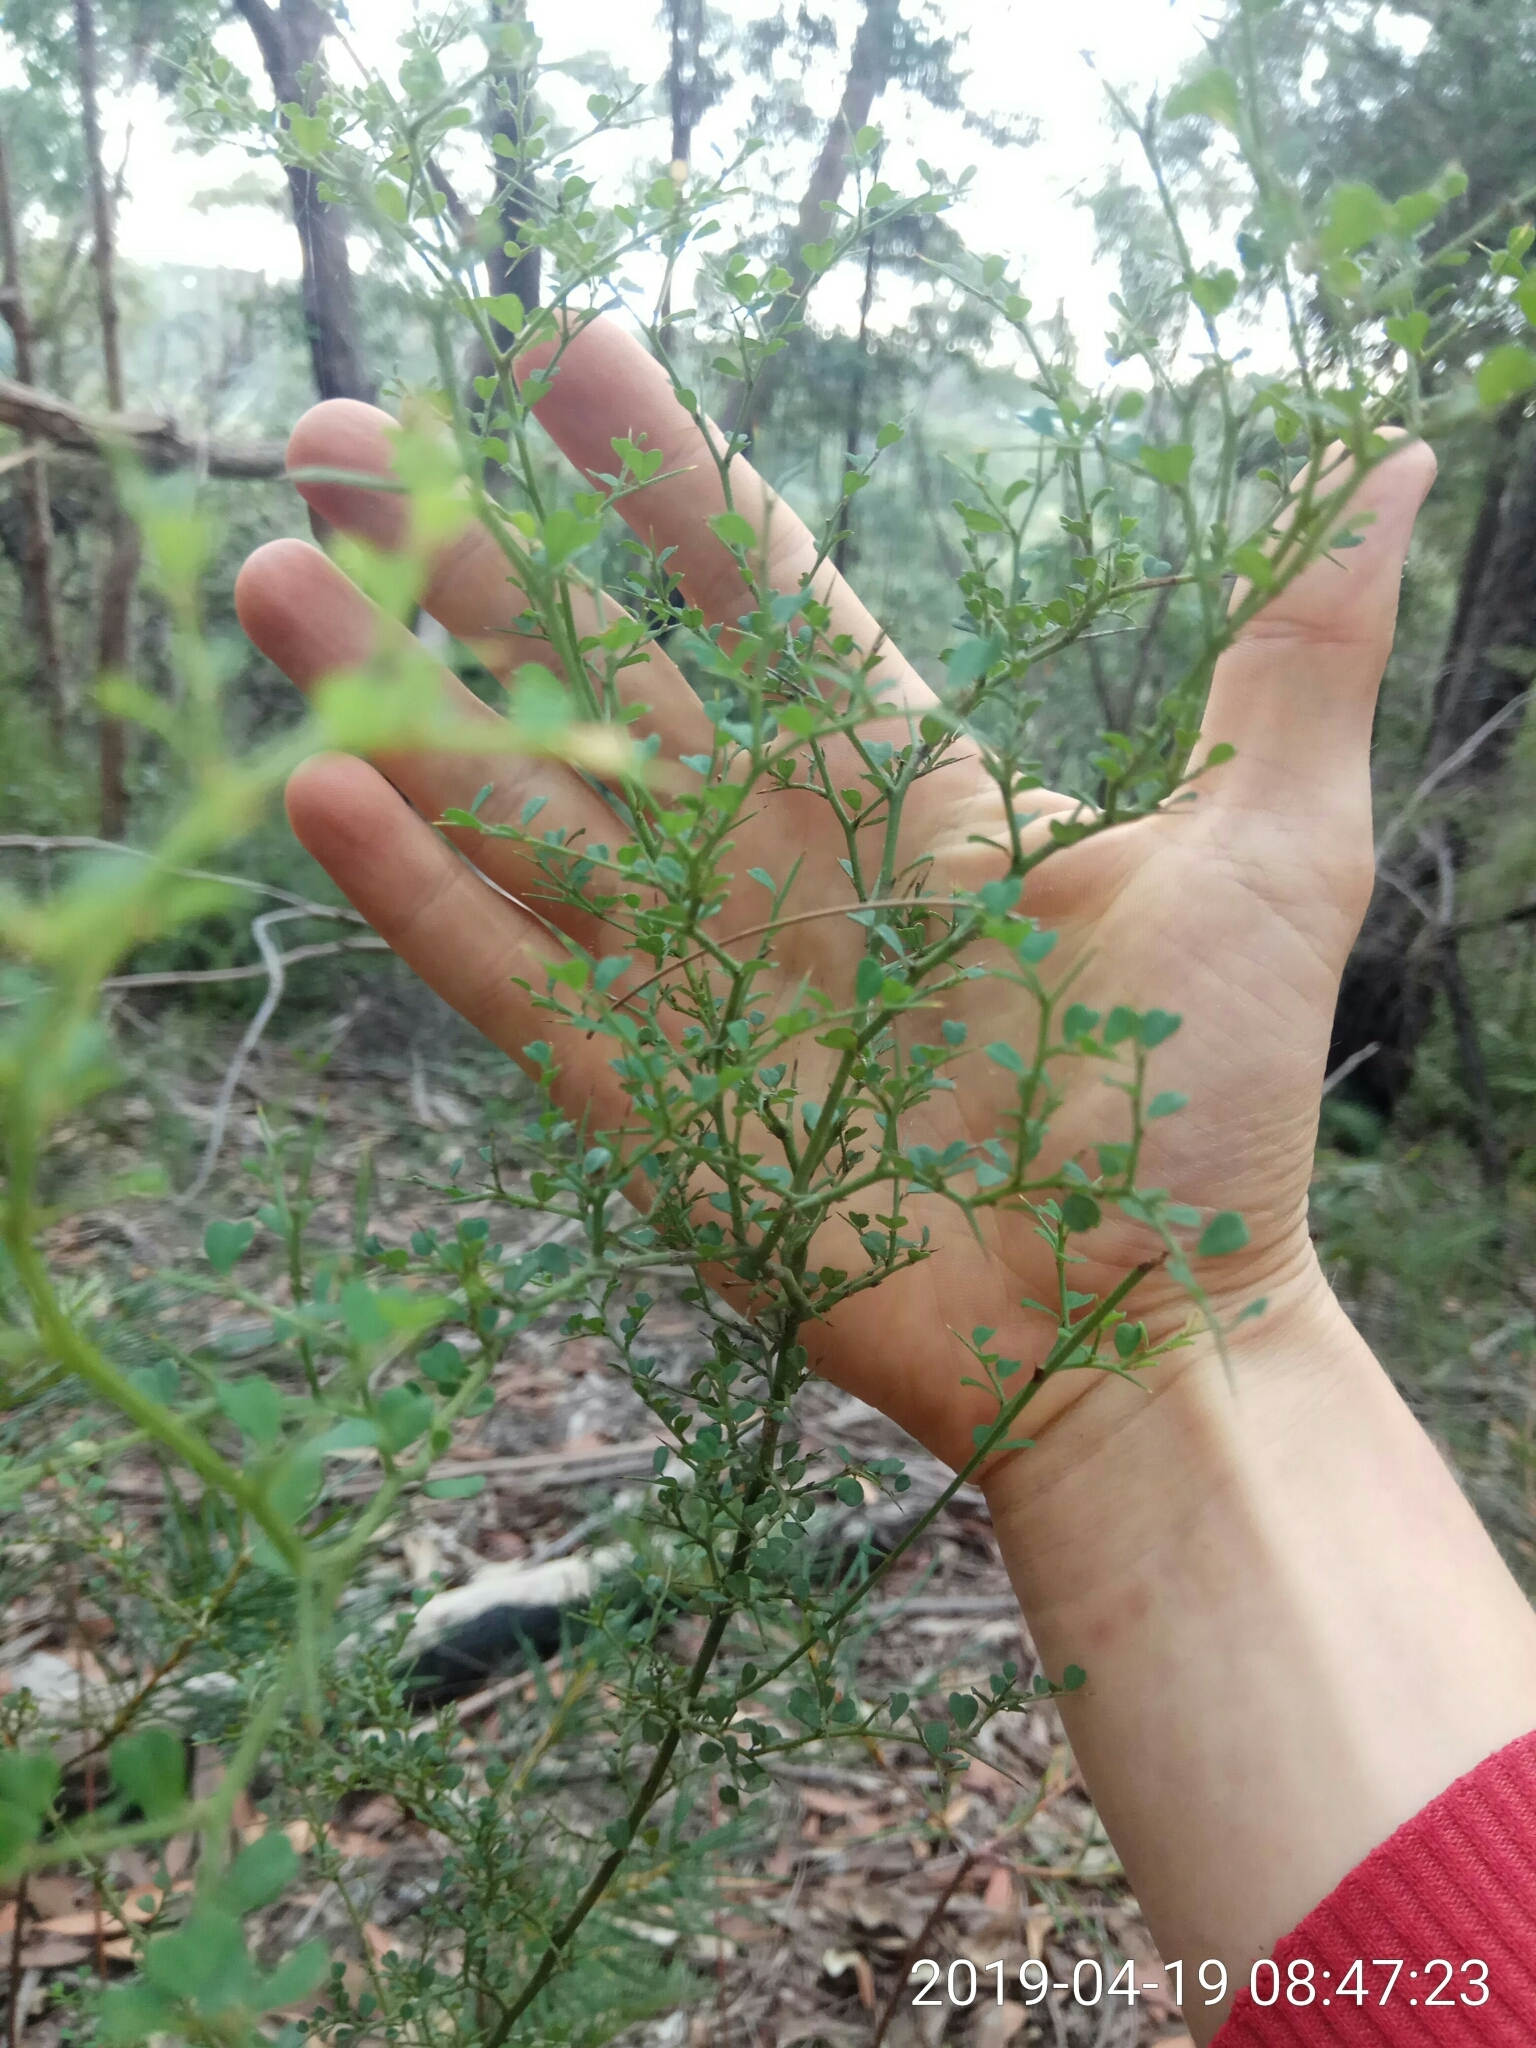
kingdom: Plantae
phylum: Tracheophyta
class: Magnoliopsida
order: Fabales
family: Fabaceae
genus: Bossiaea
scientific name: Bossiaea obcordata
